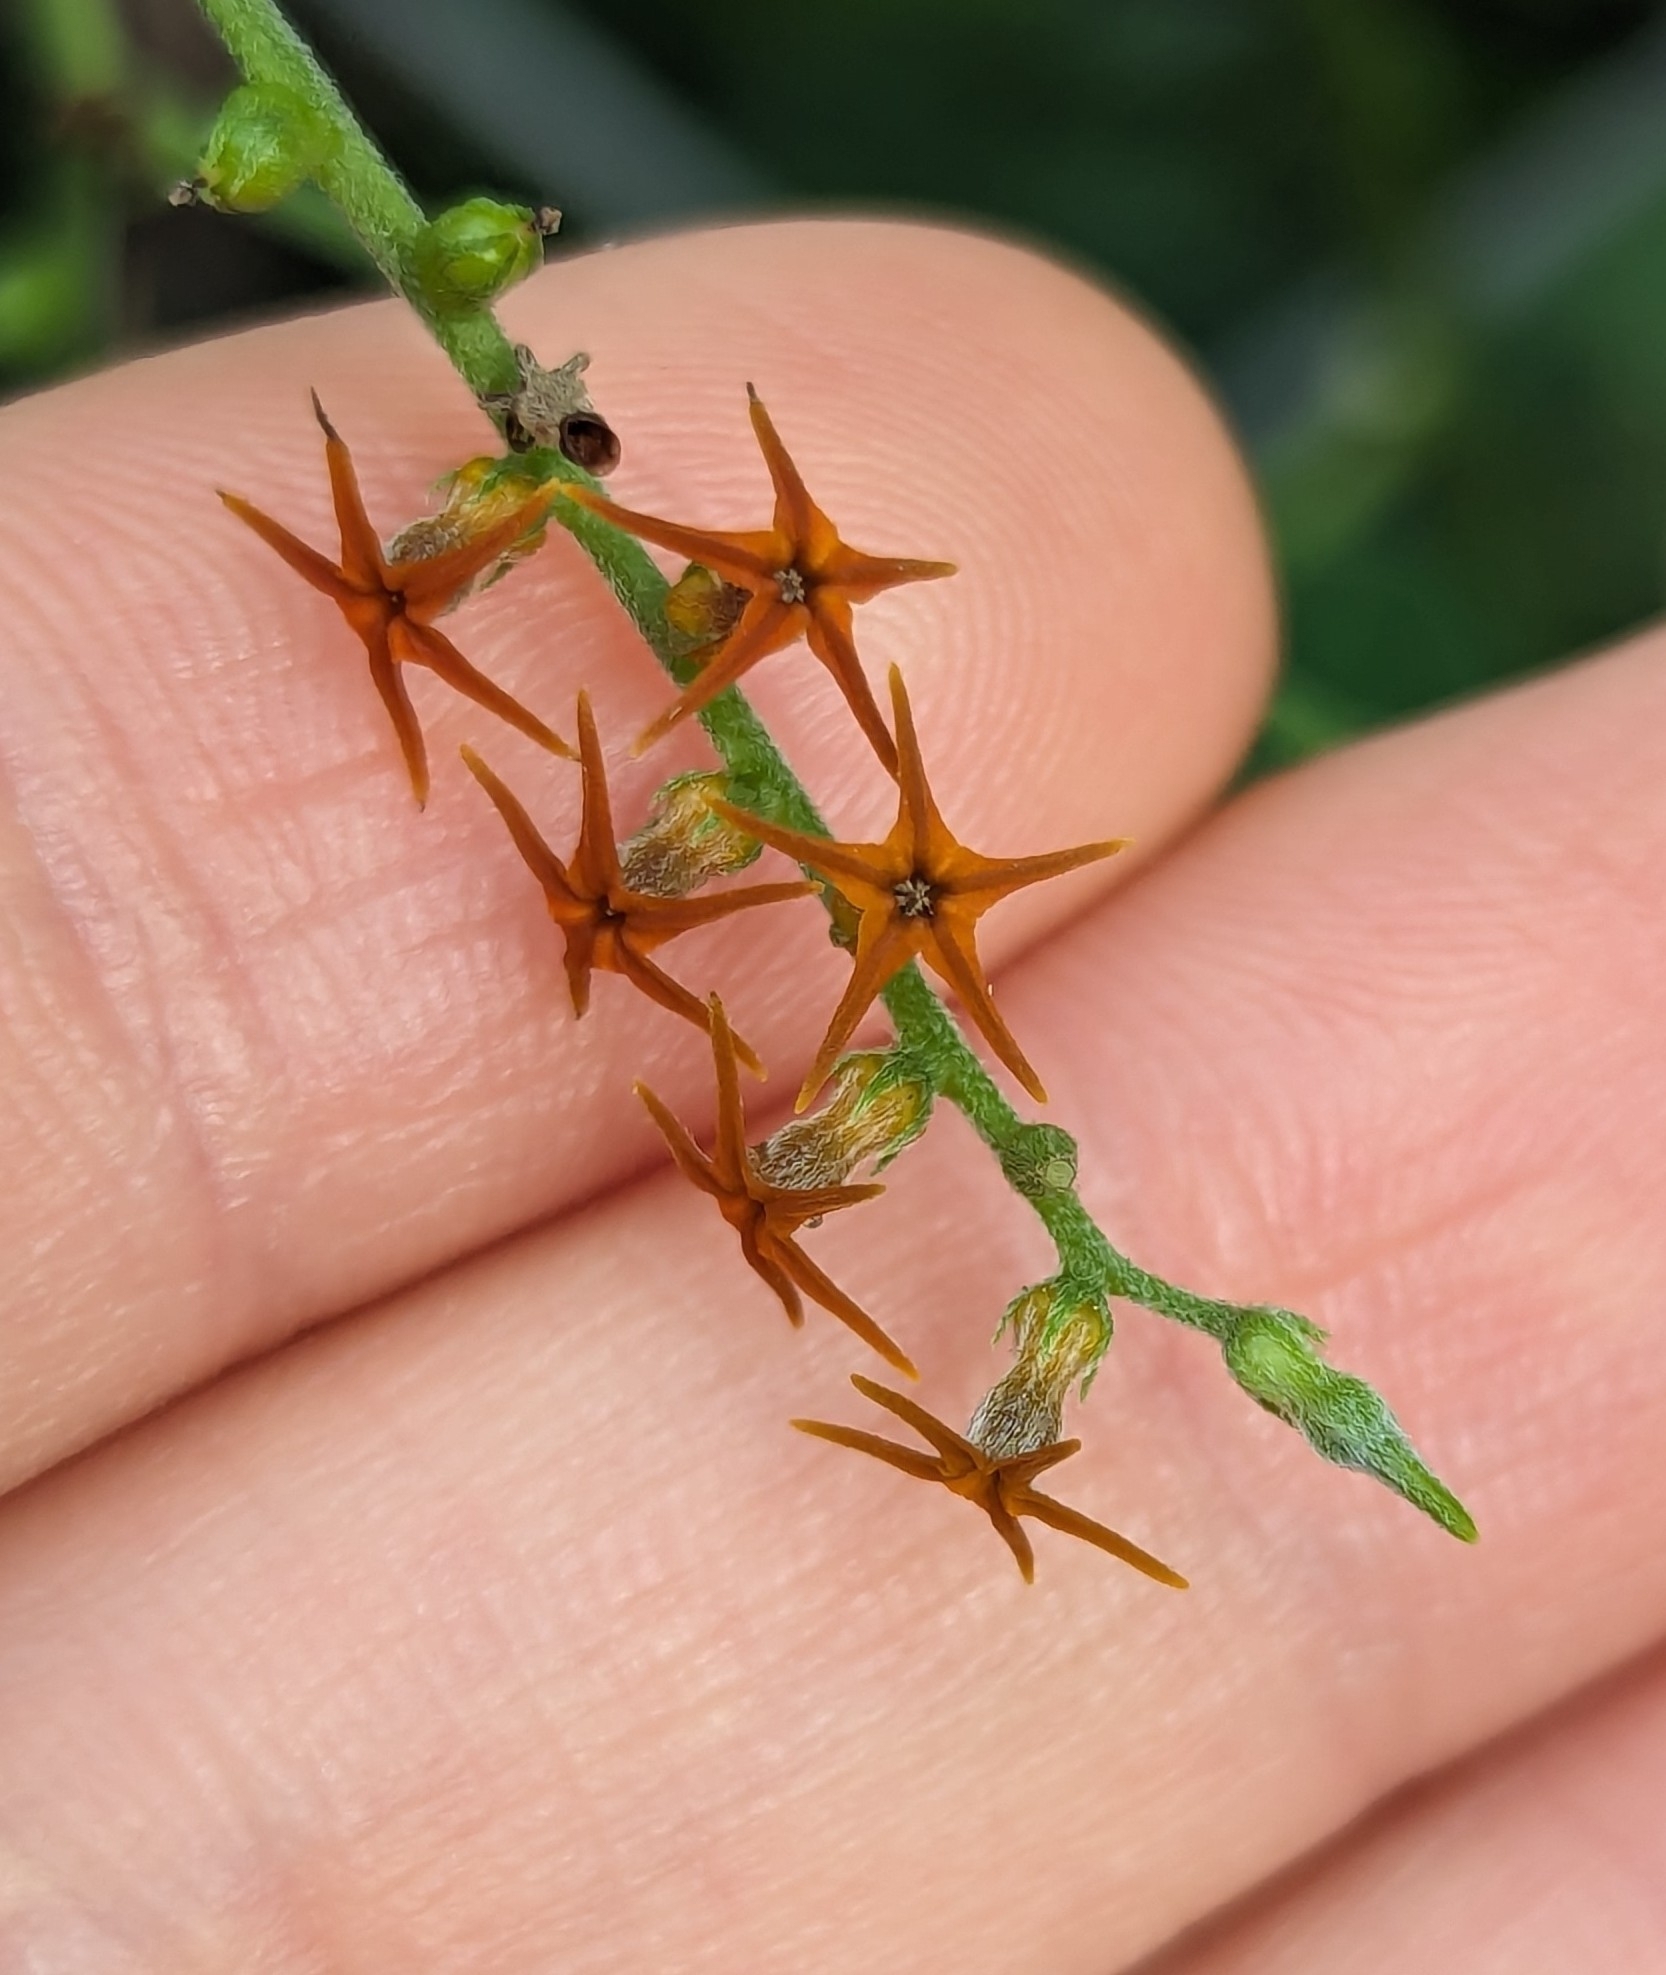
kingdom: Plantae
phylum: Tracheophyta
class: Magnoliopsida
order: Boraginales
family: Heliotropiaceae
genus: Myriopus
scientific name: Myriopus psilostachya
